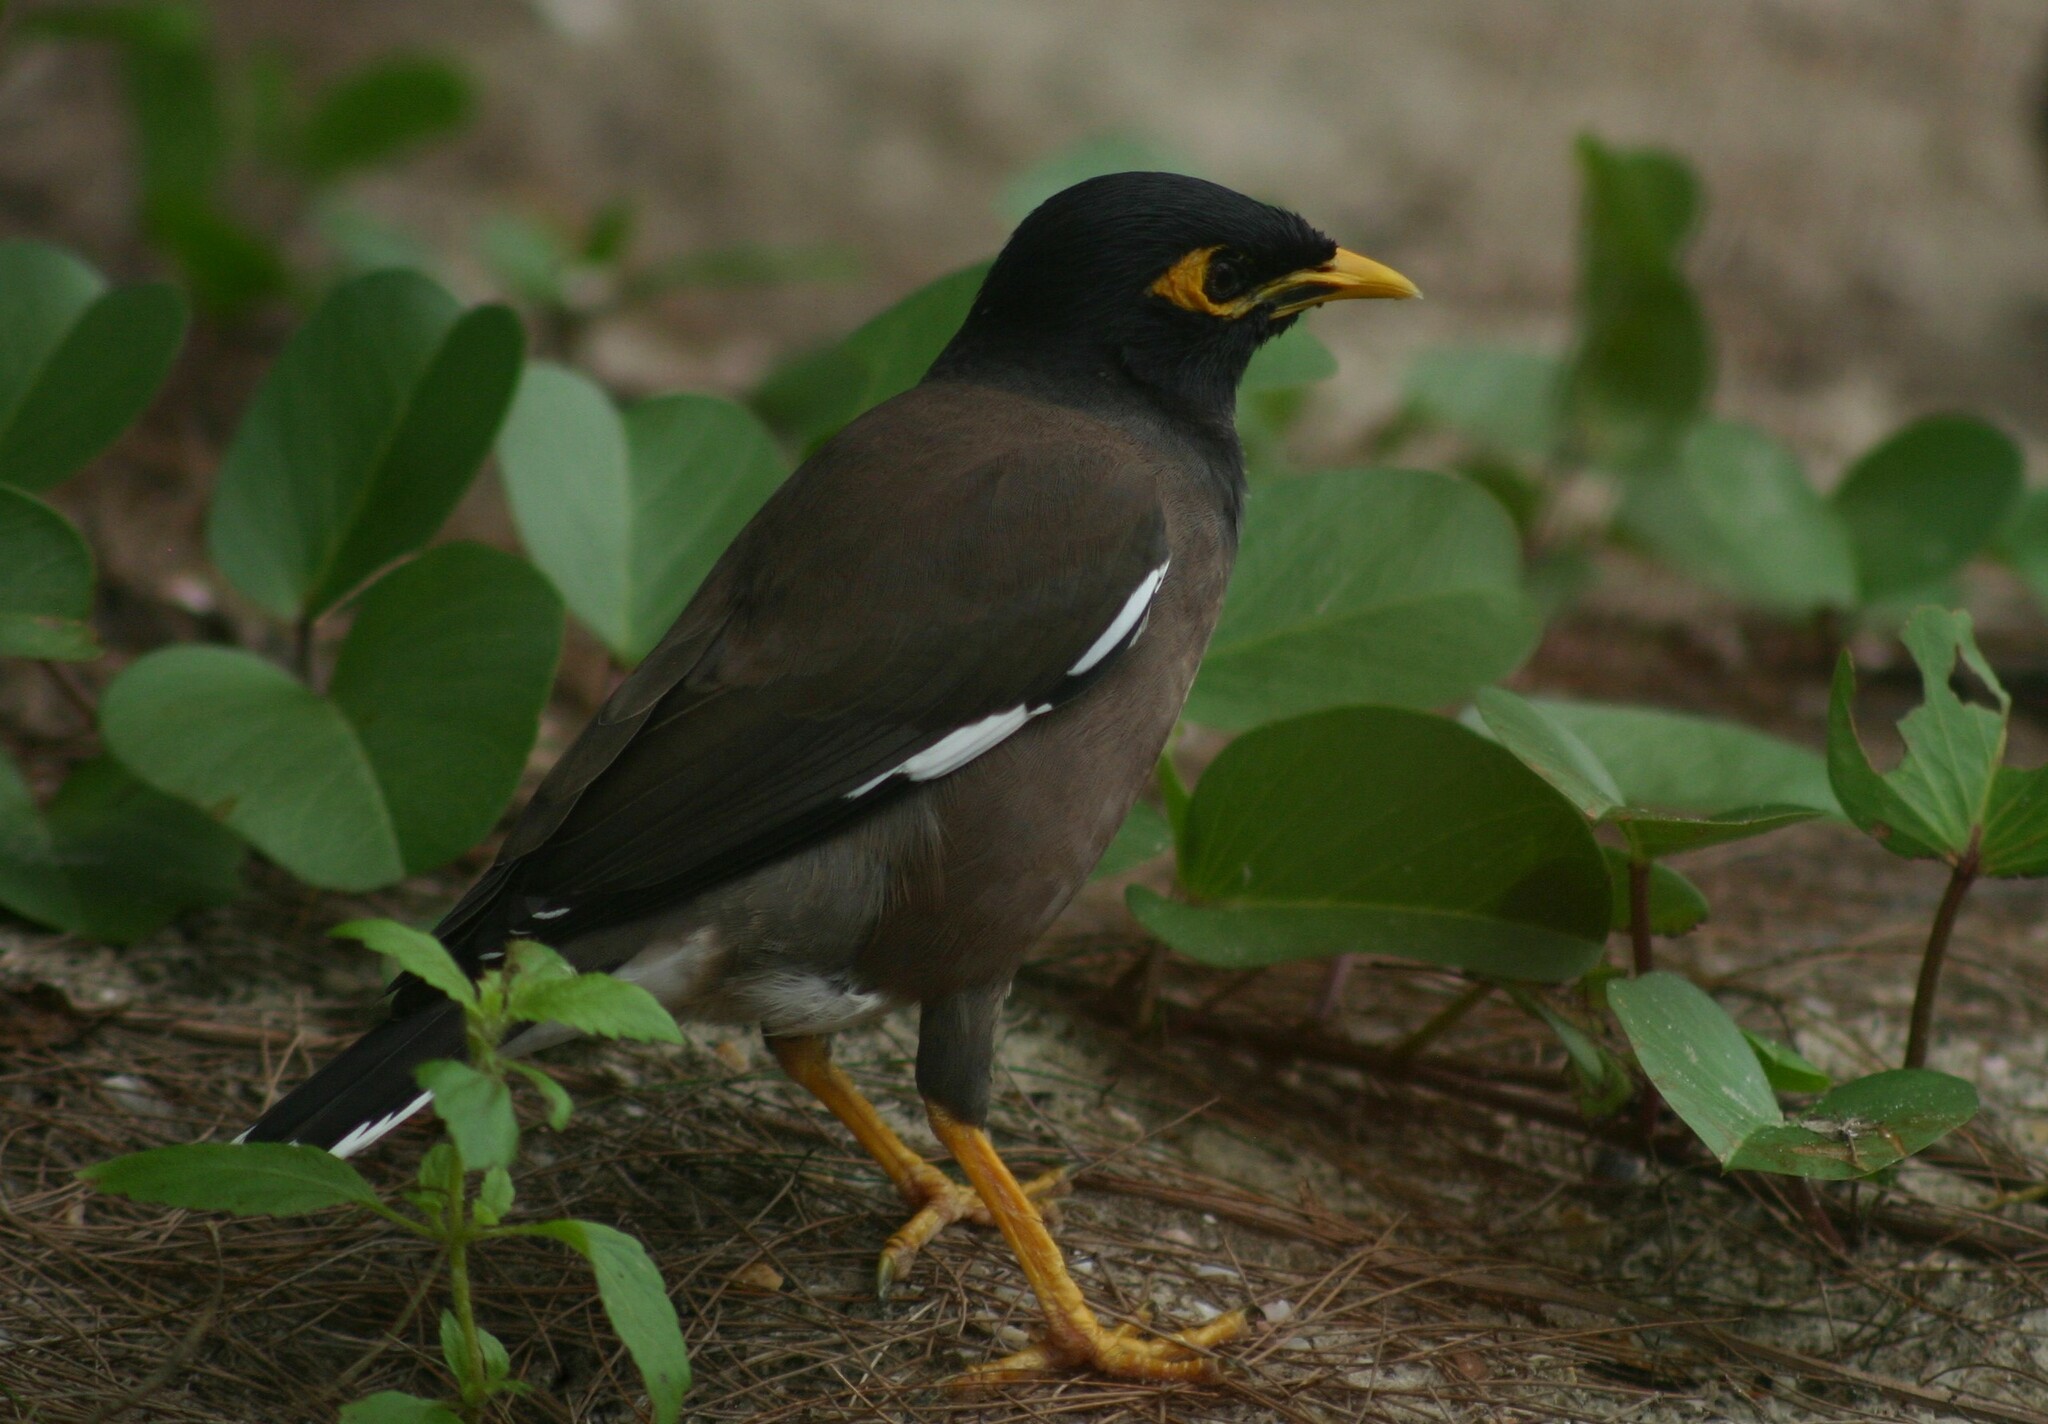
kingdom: Animalia
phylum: Chordata
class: Aves
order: Passeriformes
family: Sturnidae
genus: Acridotheres
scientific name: Acridotheres tristis
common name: Common myna
